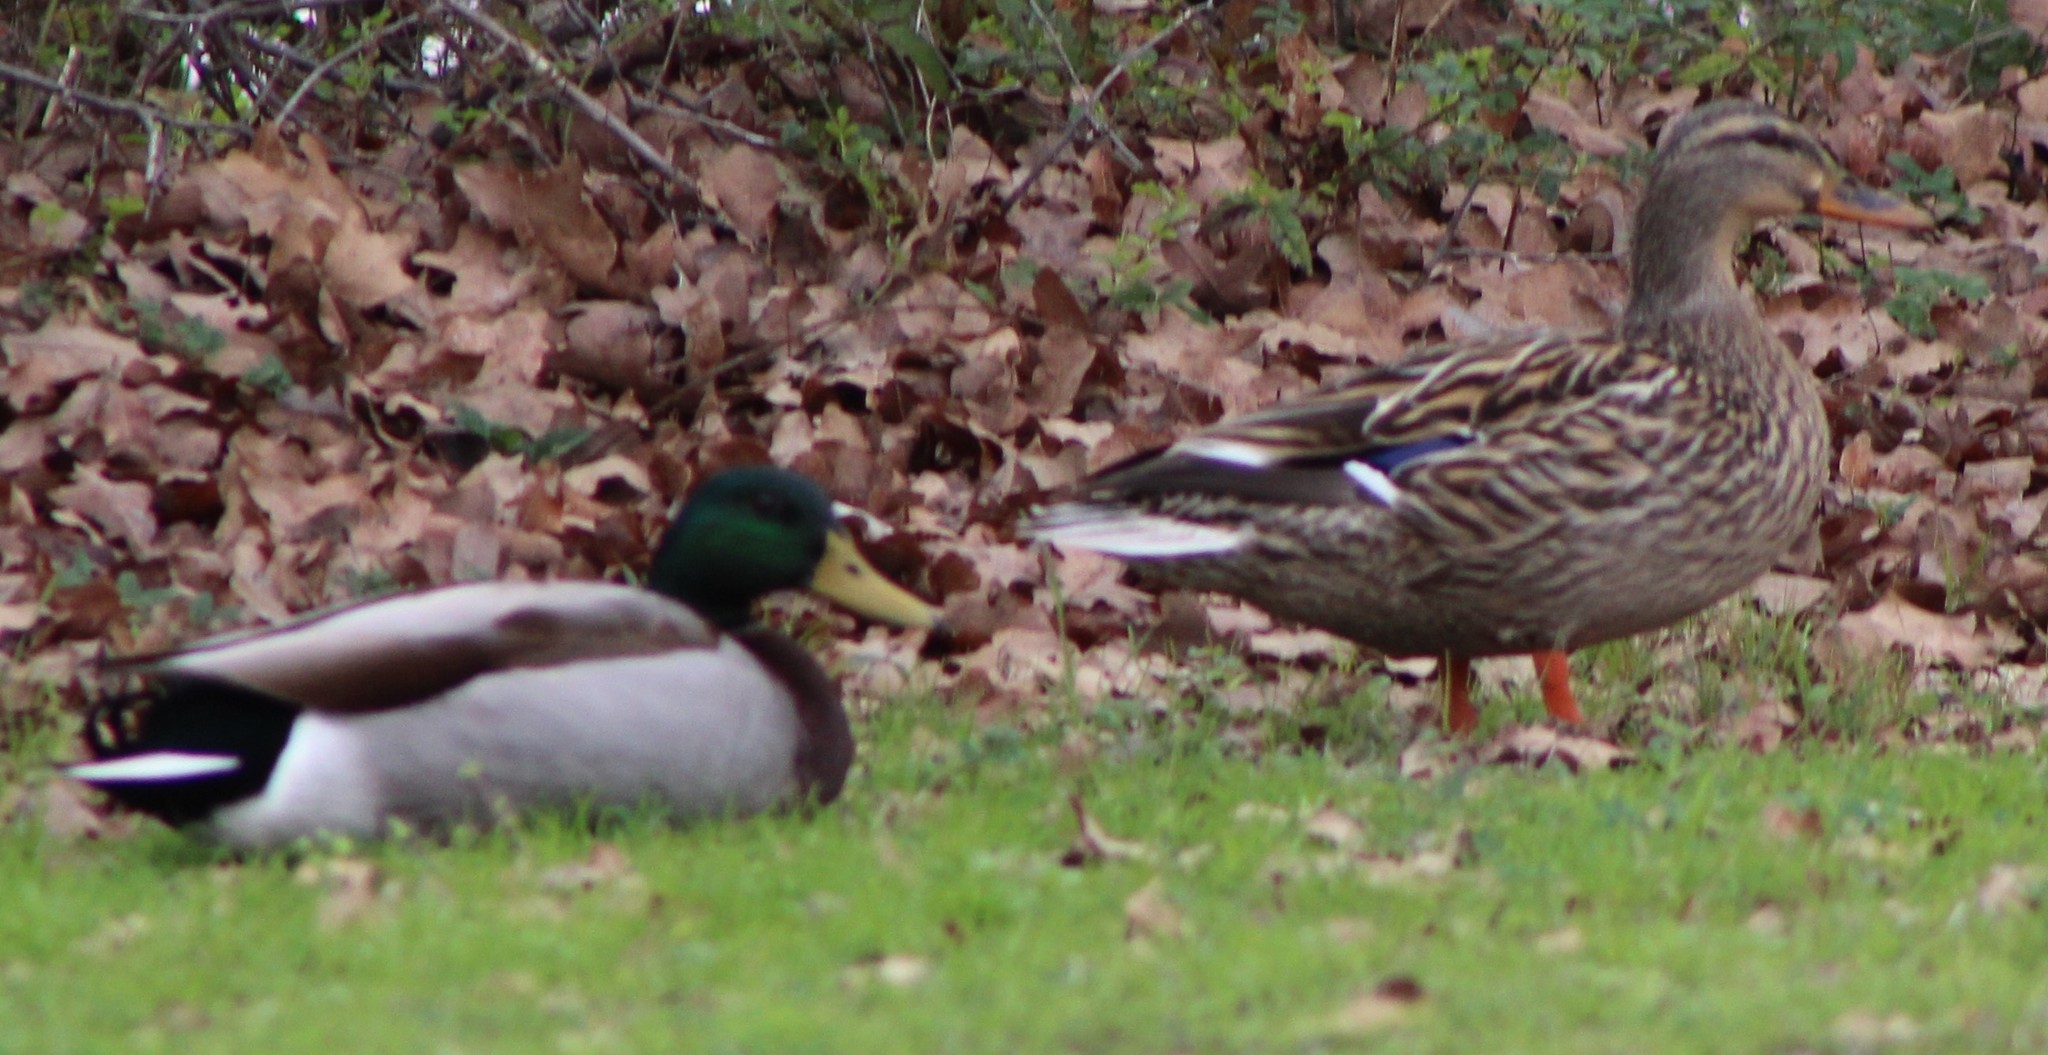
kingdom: Animalia
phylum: Chordata
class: Aves
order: Anseriformes
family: Anatidae
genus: Anas
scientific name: Anas platyrhynchos
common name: Mallard
